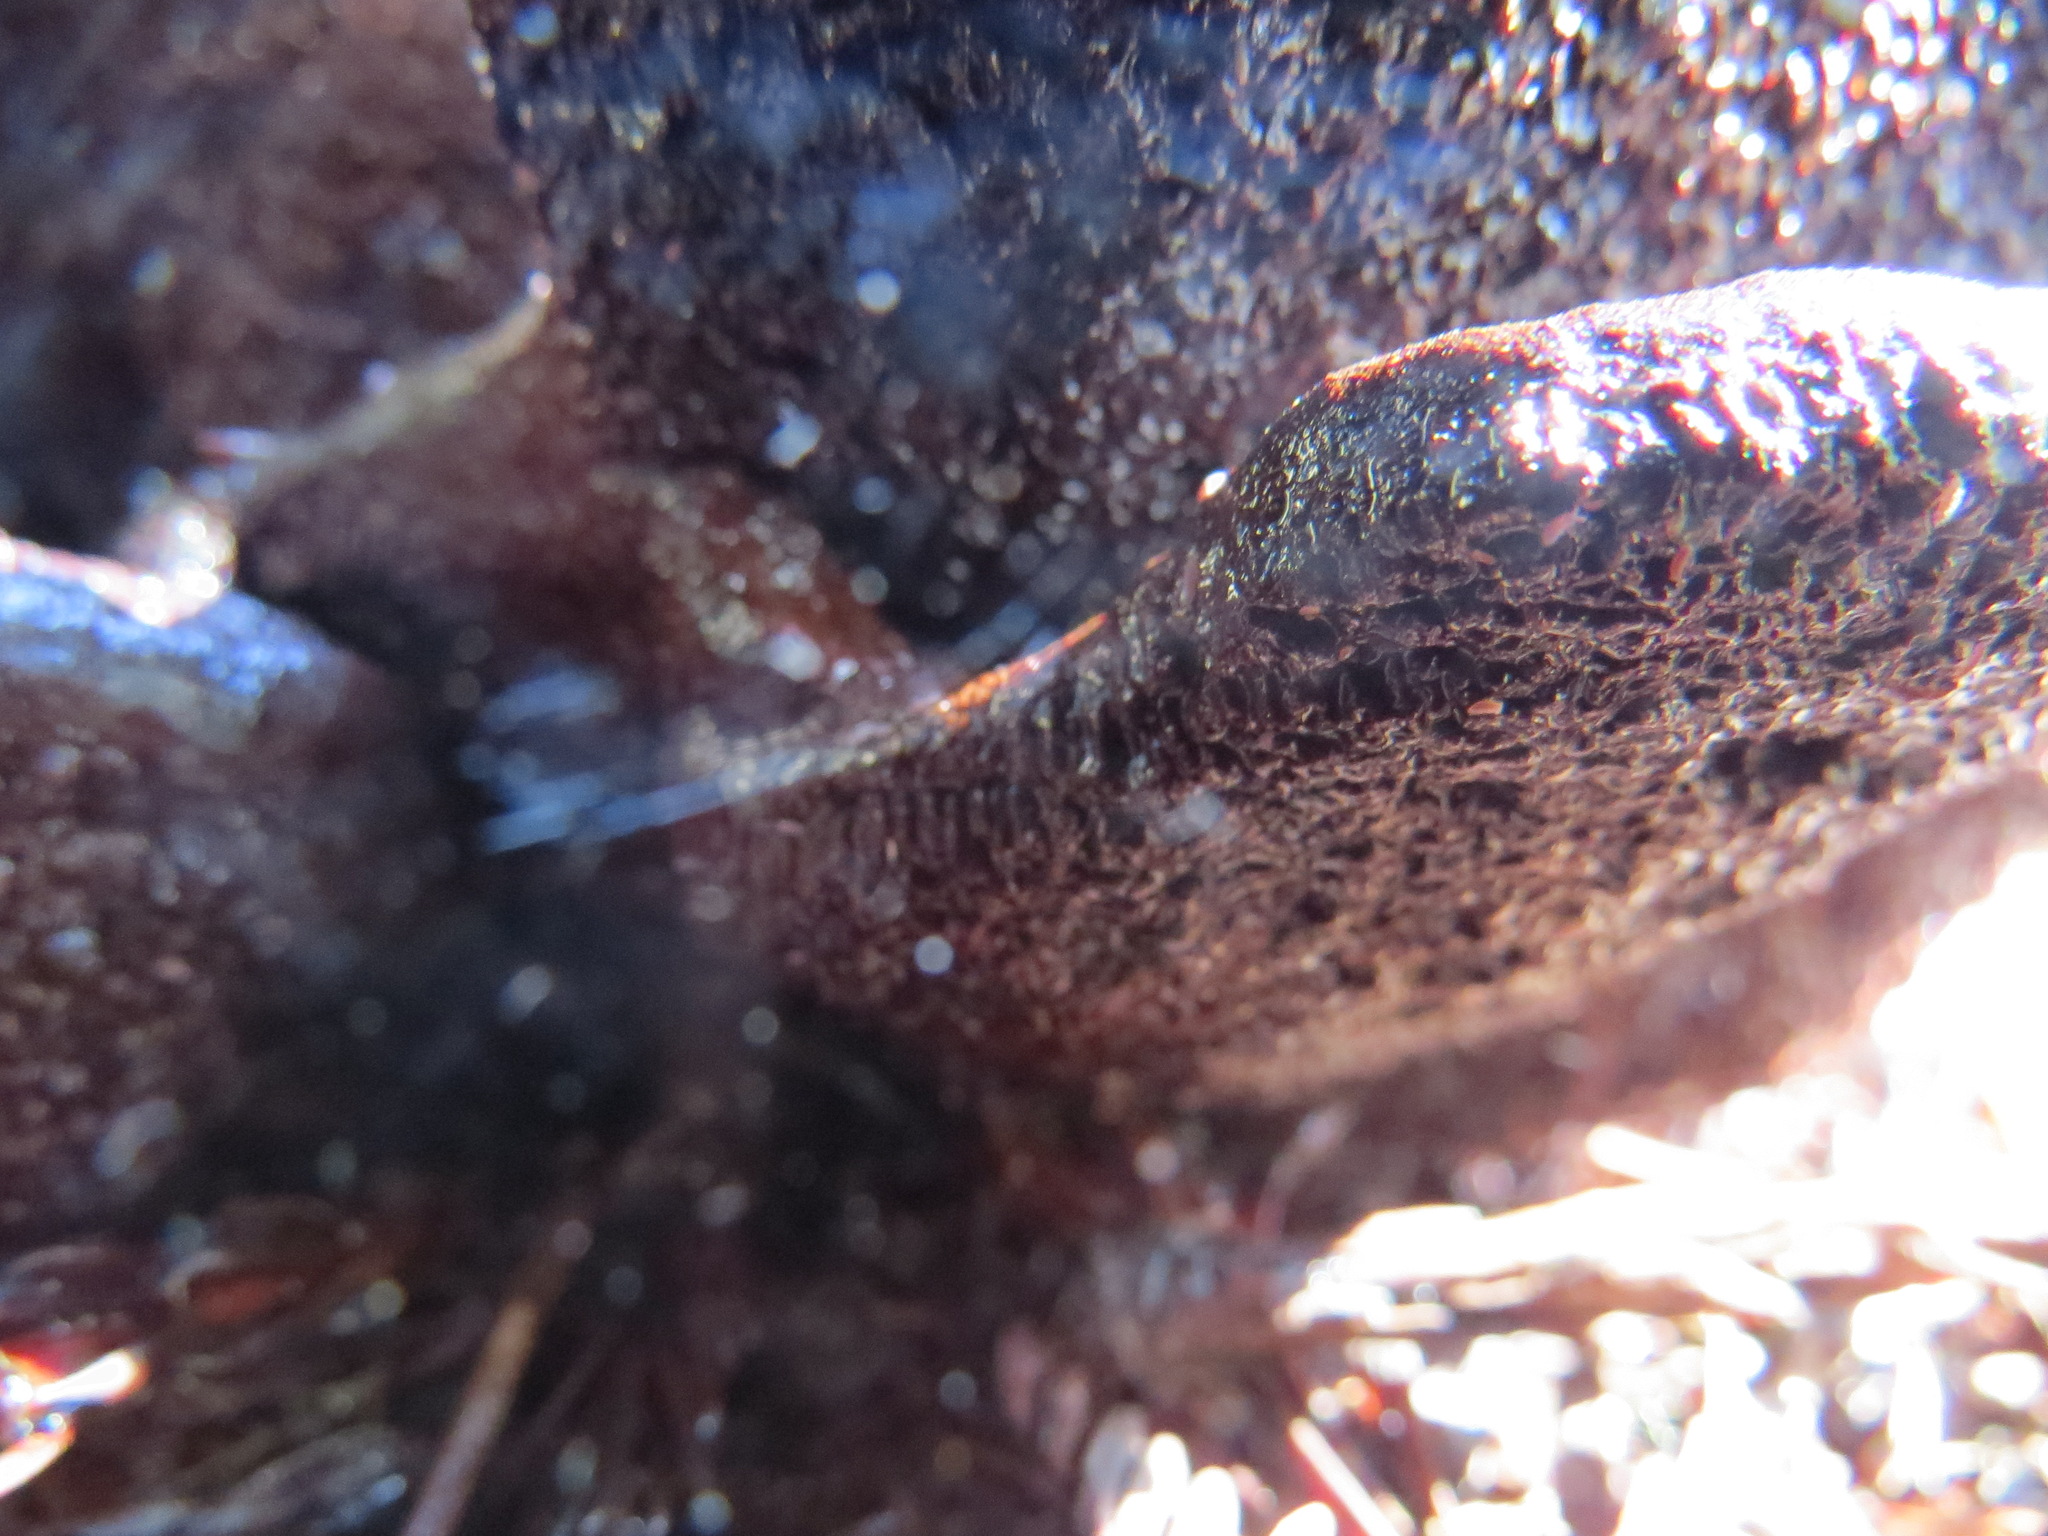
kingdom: Fungi
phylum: Basidiomycota
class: Agaricomycetes
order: Polyporales
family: Laetiporaceae
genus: Phaeolus
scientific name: Phaeolus schweinitzii
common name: Dyer's mazegill
